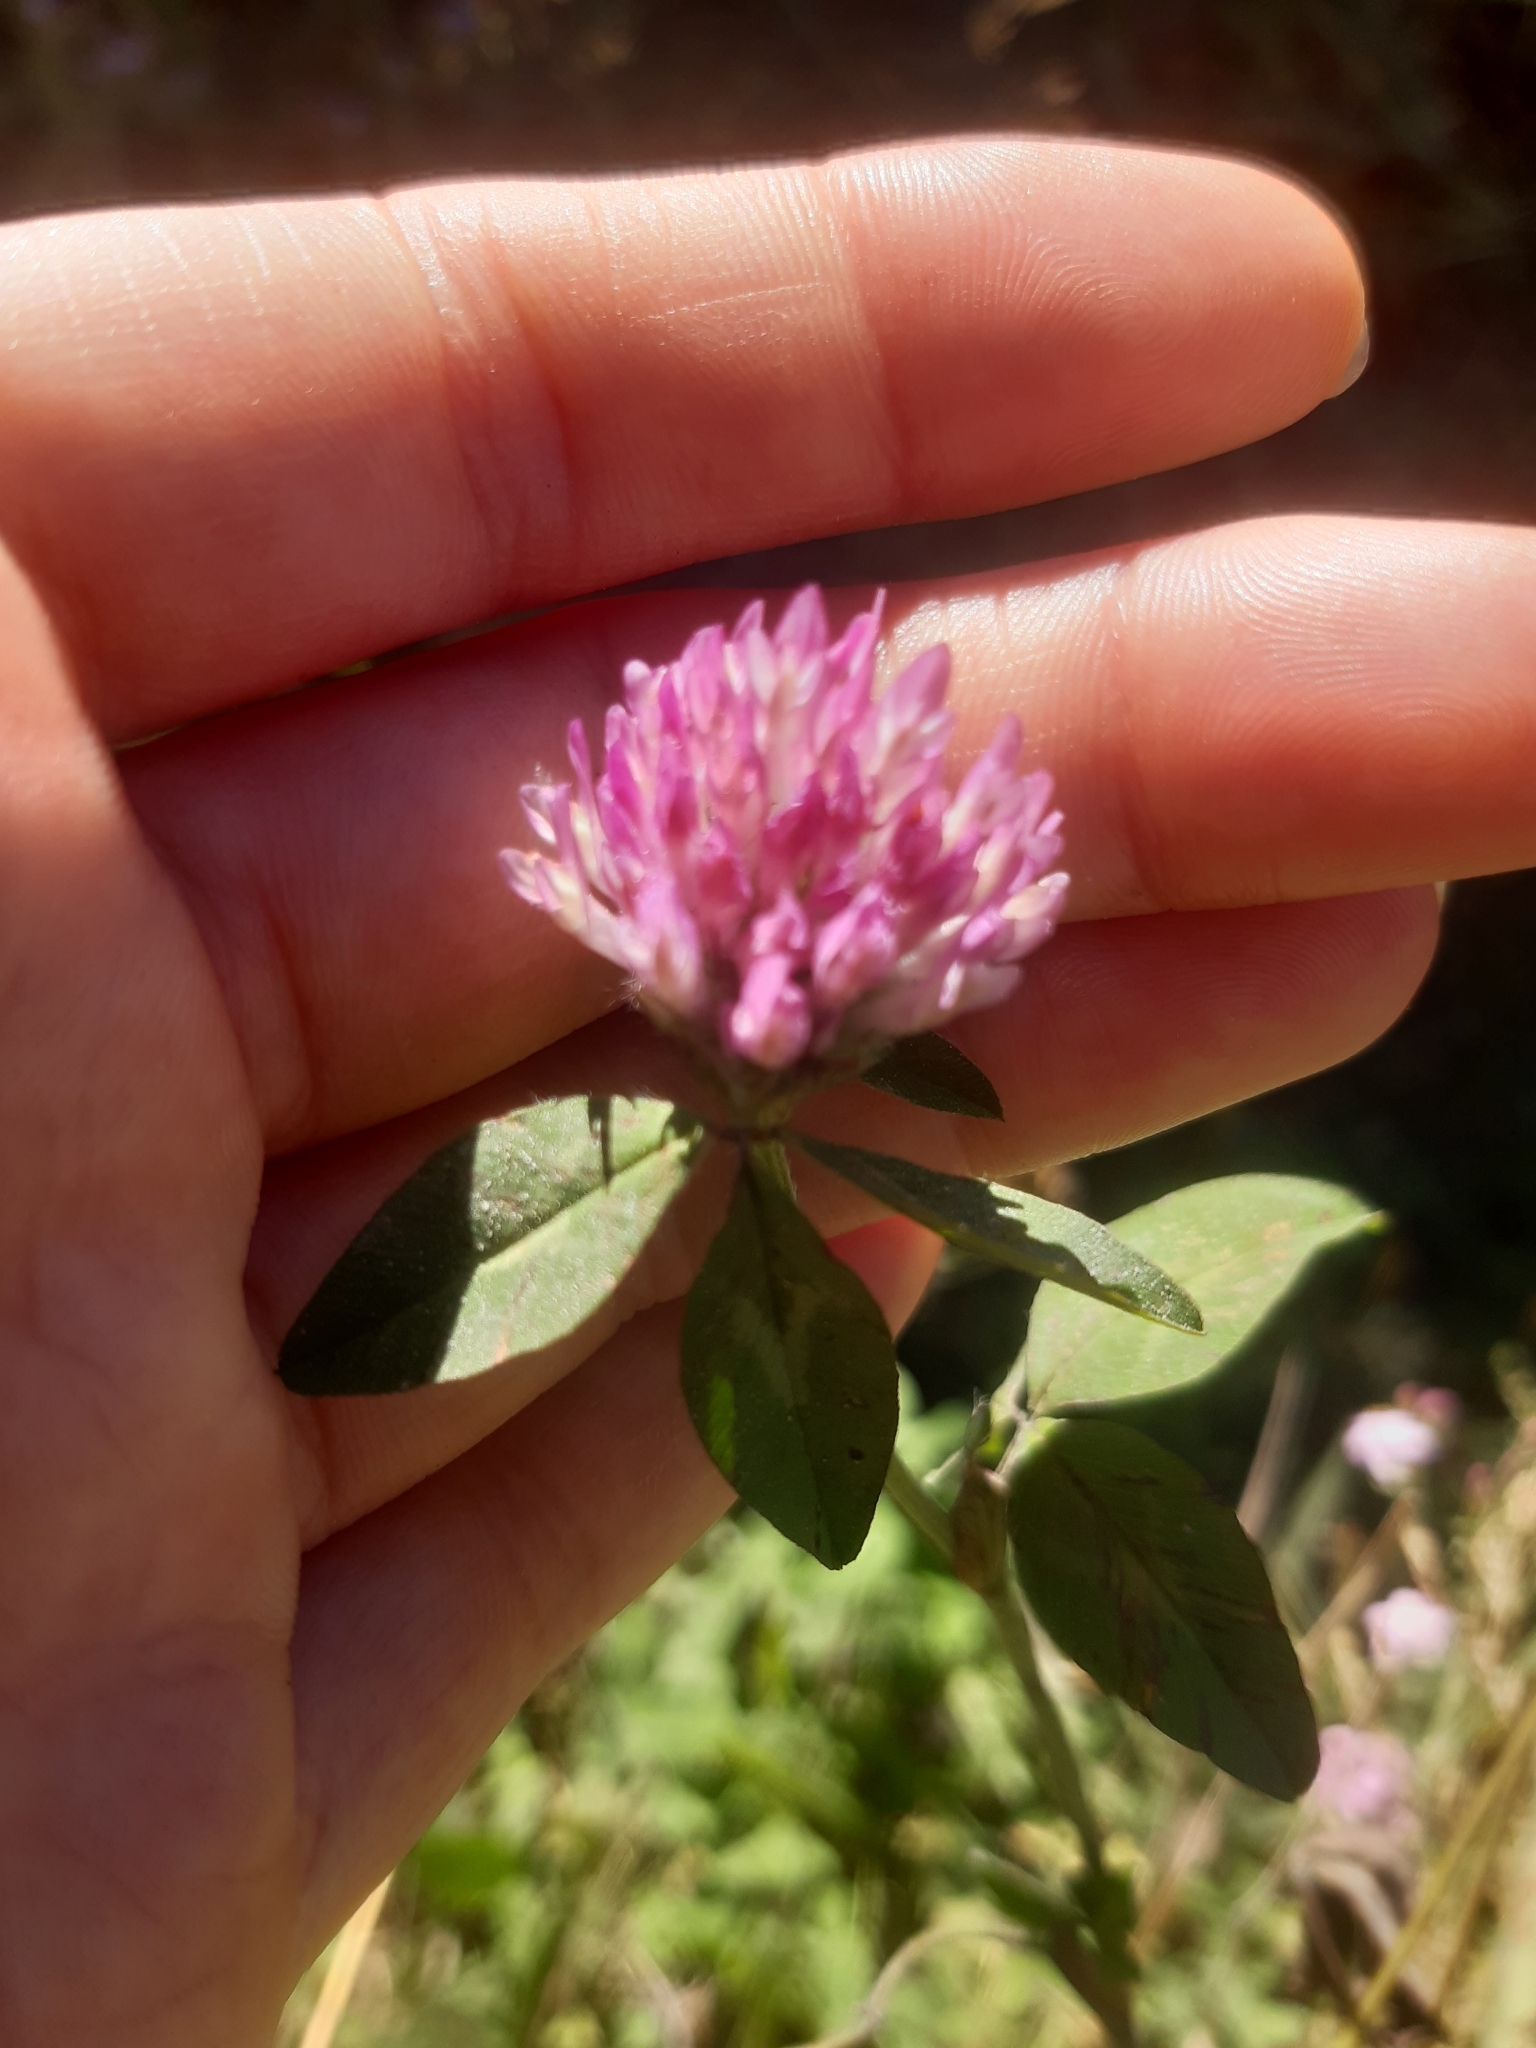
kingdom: Plantae
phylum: Tracheophyta
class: Magnoliopsida
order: Fabales
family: Fabaceae
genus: Trifolium
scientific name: Trifolium pratense
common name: Red clover
